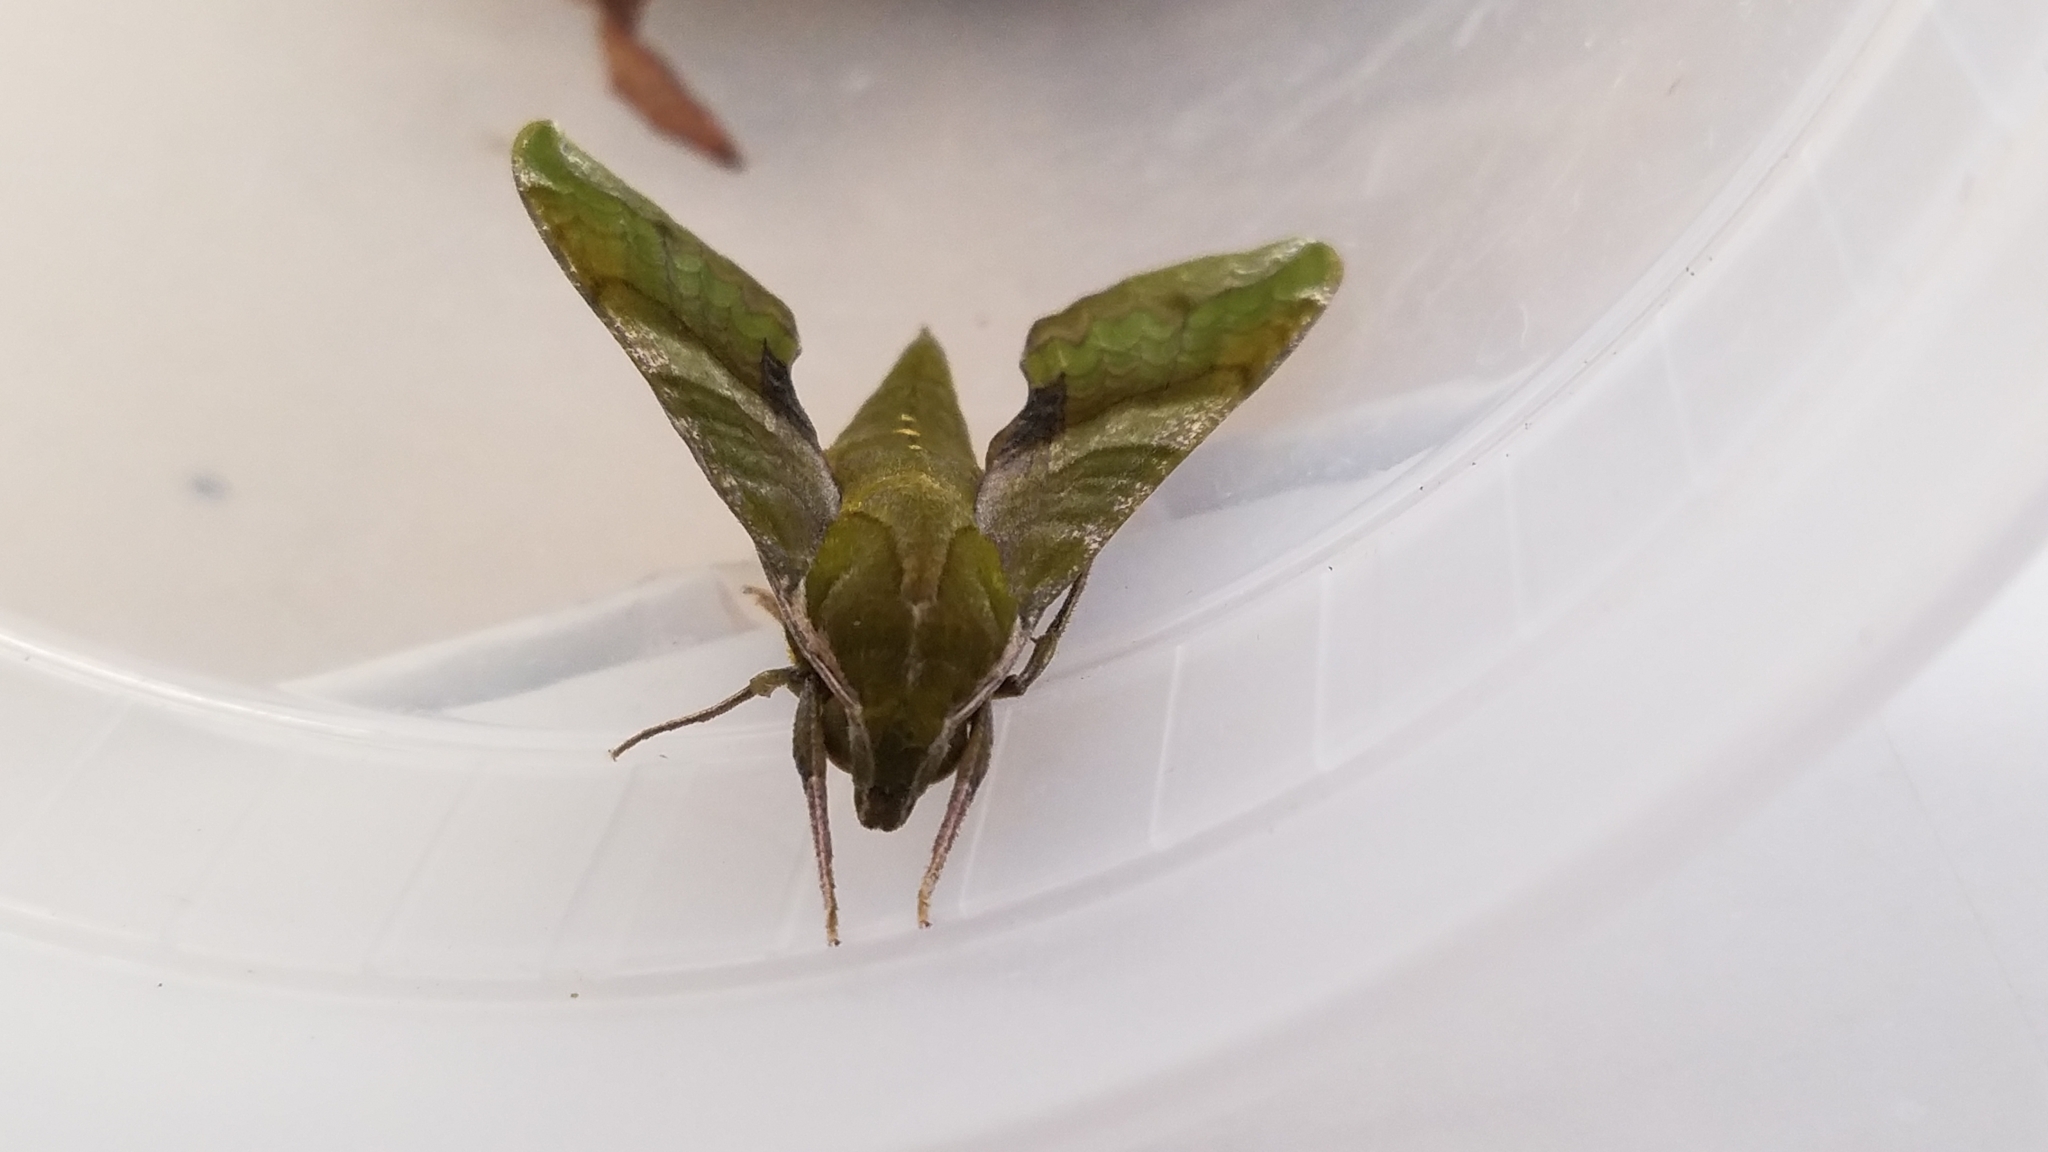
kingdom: Animalia
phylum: Arthropoda
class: Insecta
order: Lepidoptera
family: Sphingidae
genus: Xylophanes
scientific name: Xylophanes pluto
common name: Pluto sphinx
